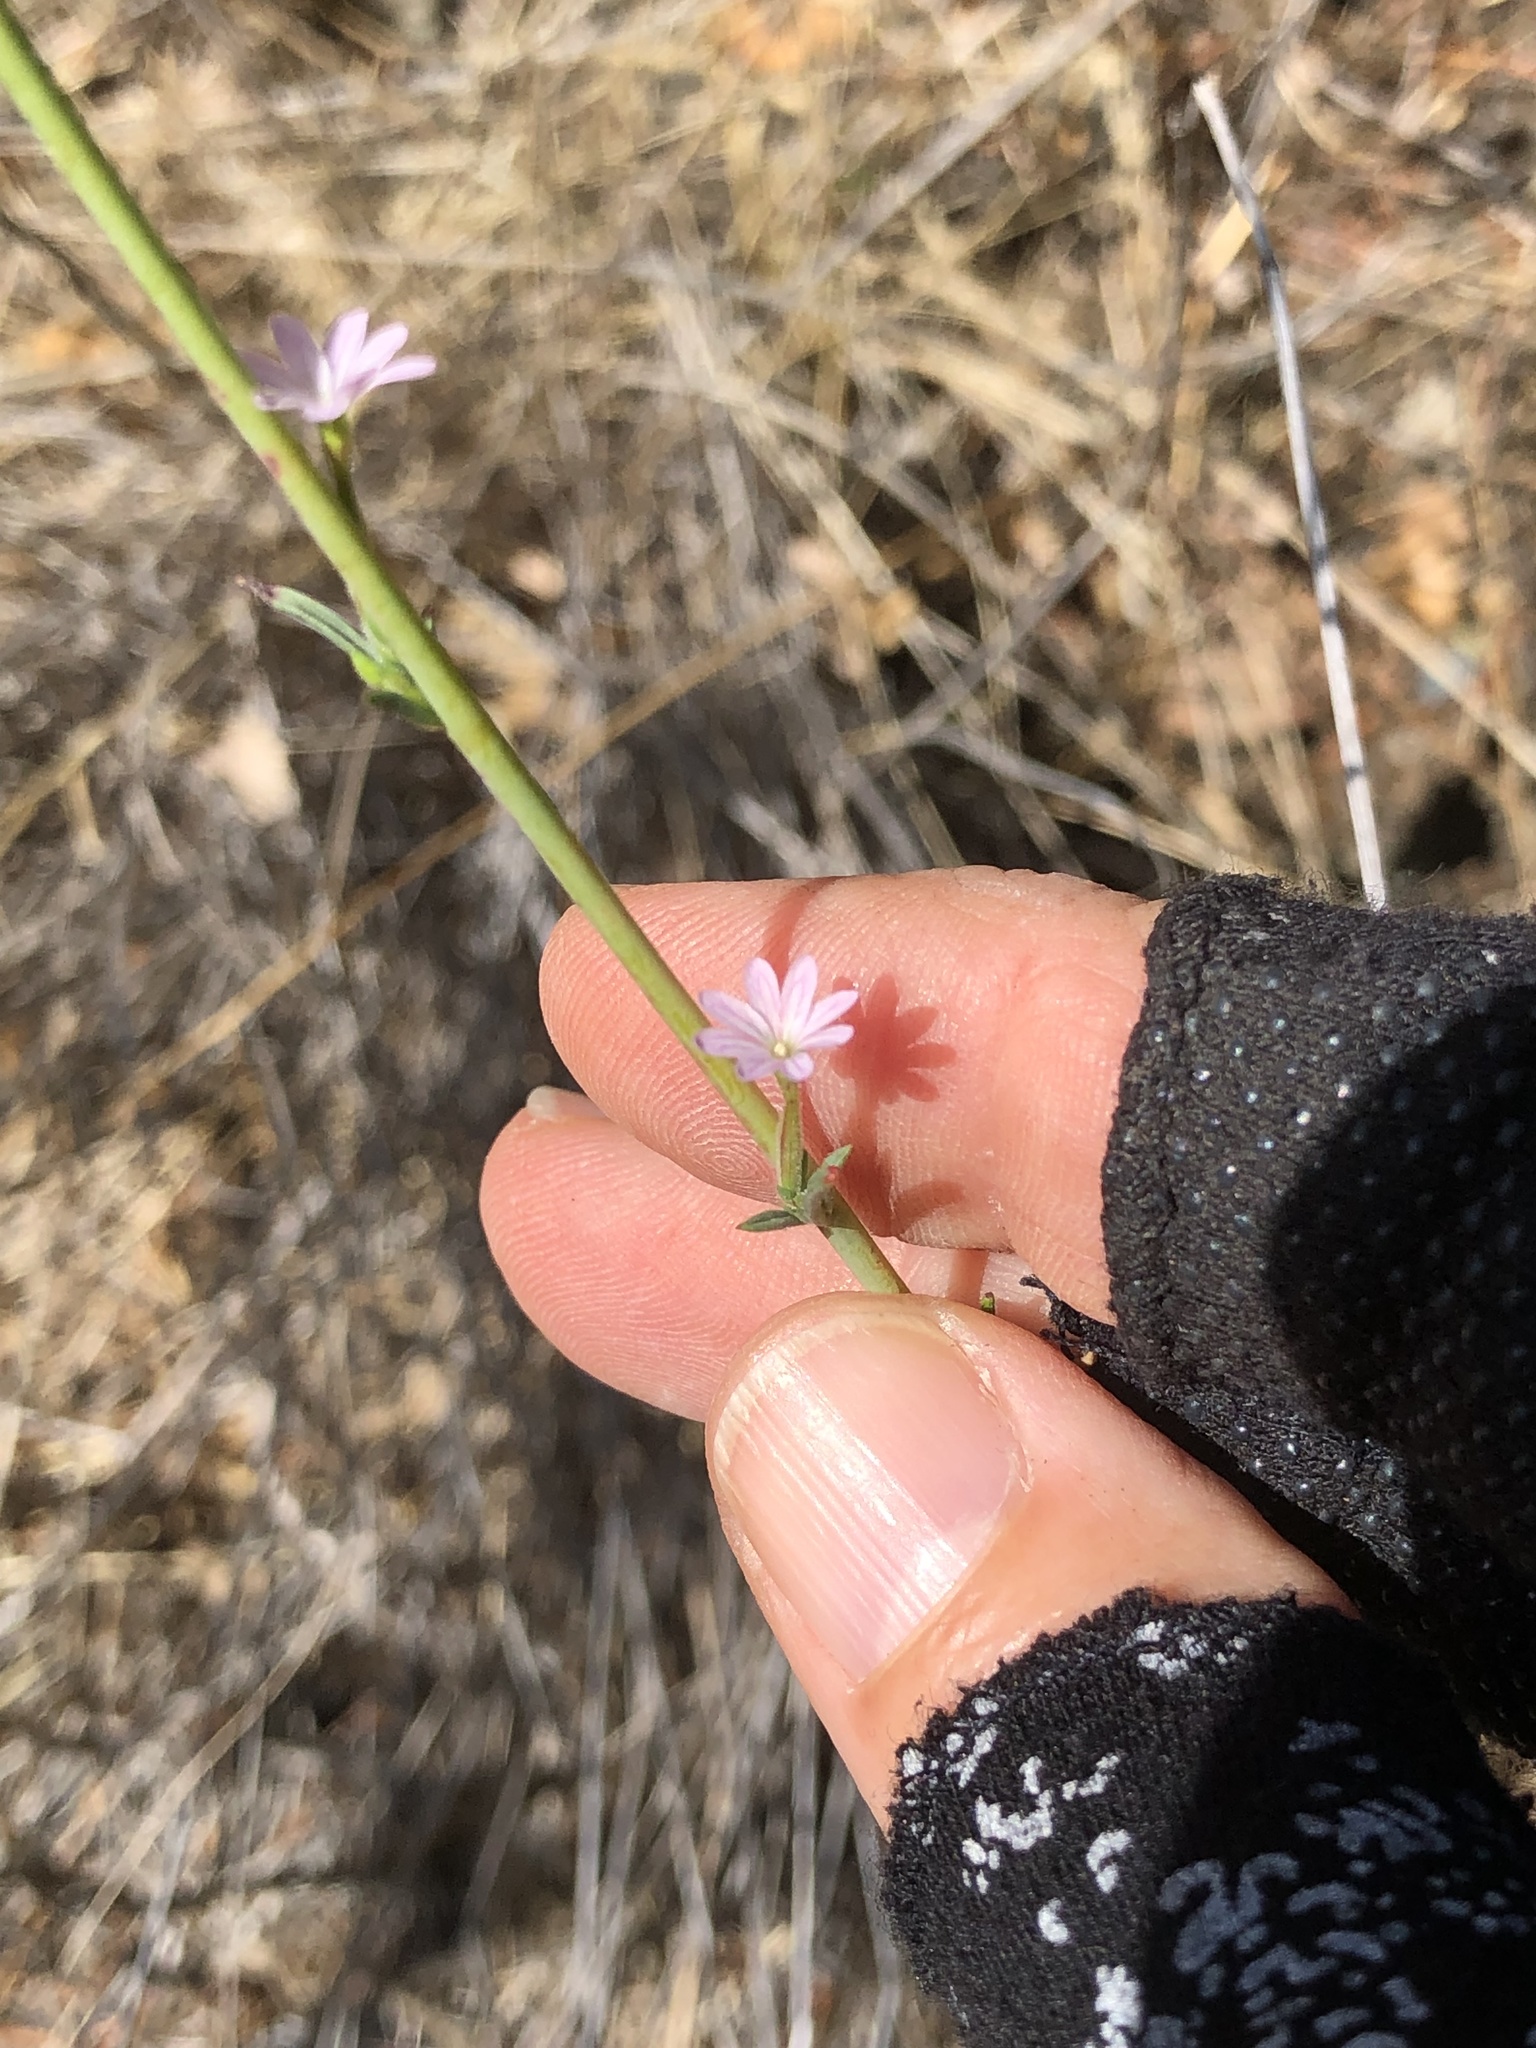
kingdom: Plantae
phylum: Tracheophyta
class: Magnoliopsida
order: Myrtales
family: Onagraceae
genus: Epilobium
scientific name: Epilobium brachycarpum
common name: Annual willowherb
